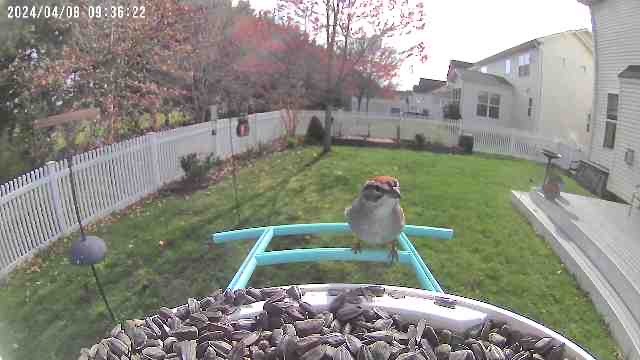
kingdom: Animalia
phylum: Chordata
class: Aves
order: Passeriformes
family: Passerellidae
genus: Spizella
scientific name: Spizella passerina
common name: Chipping sparrow
